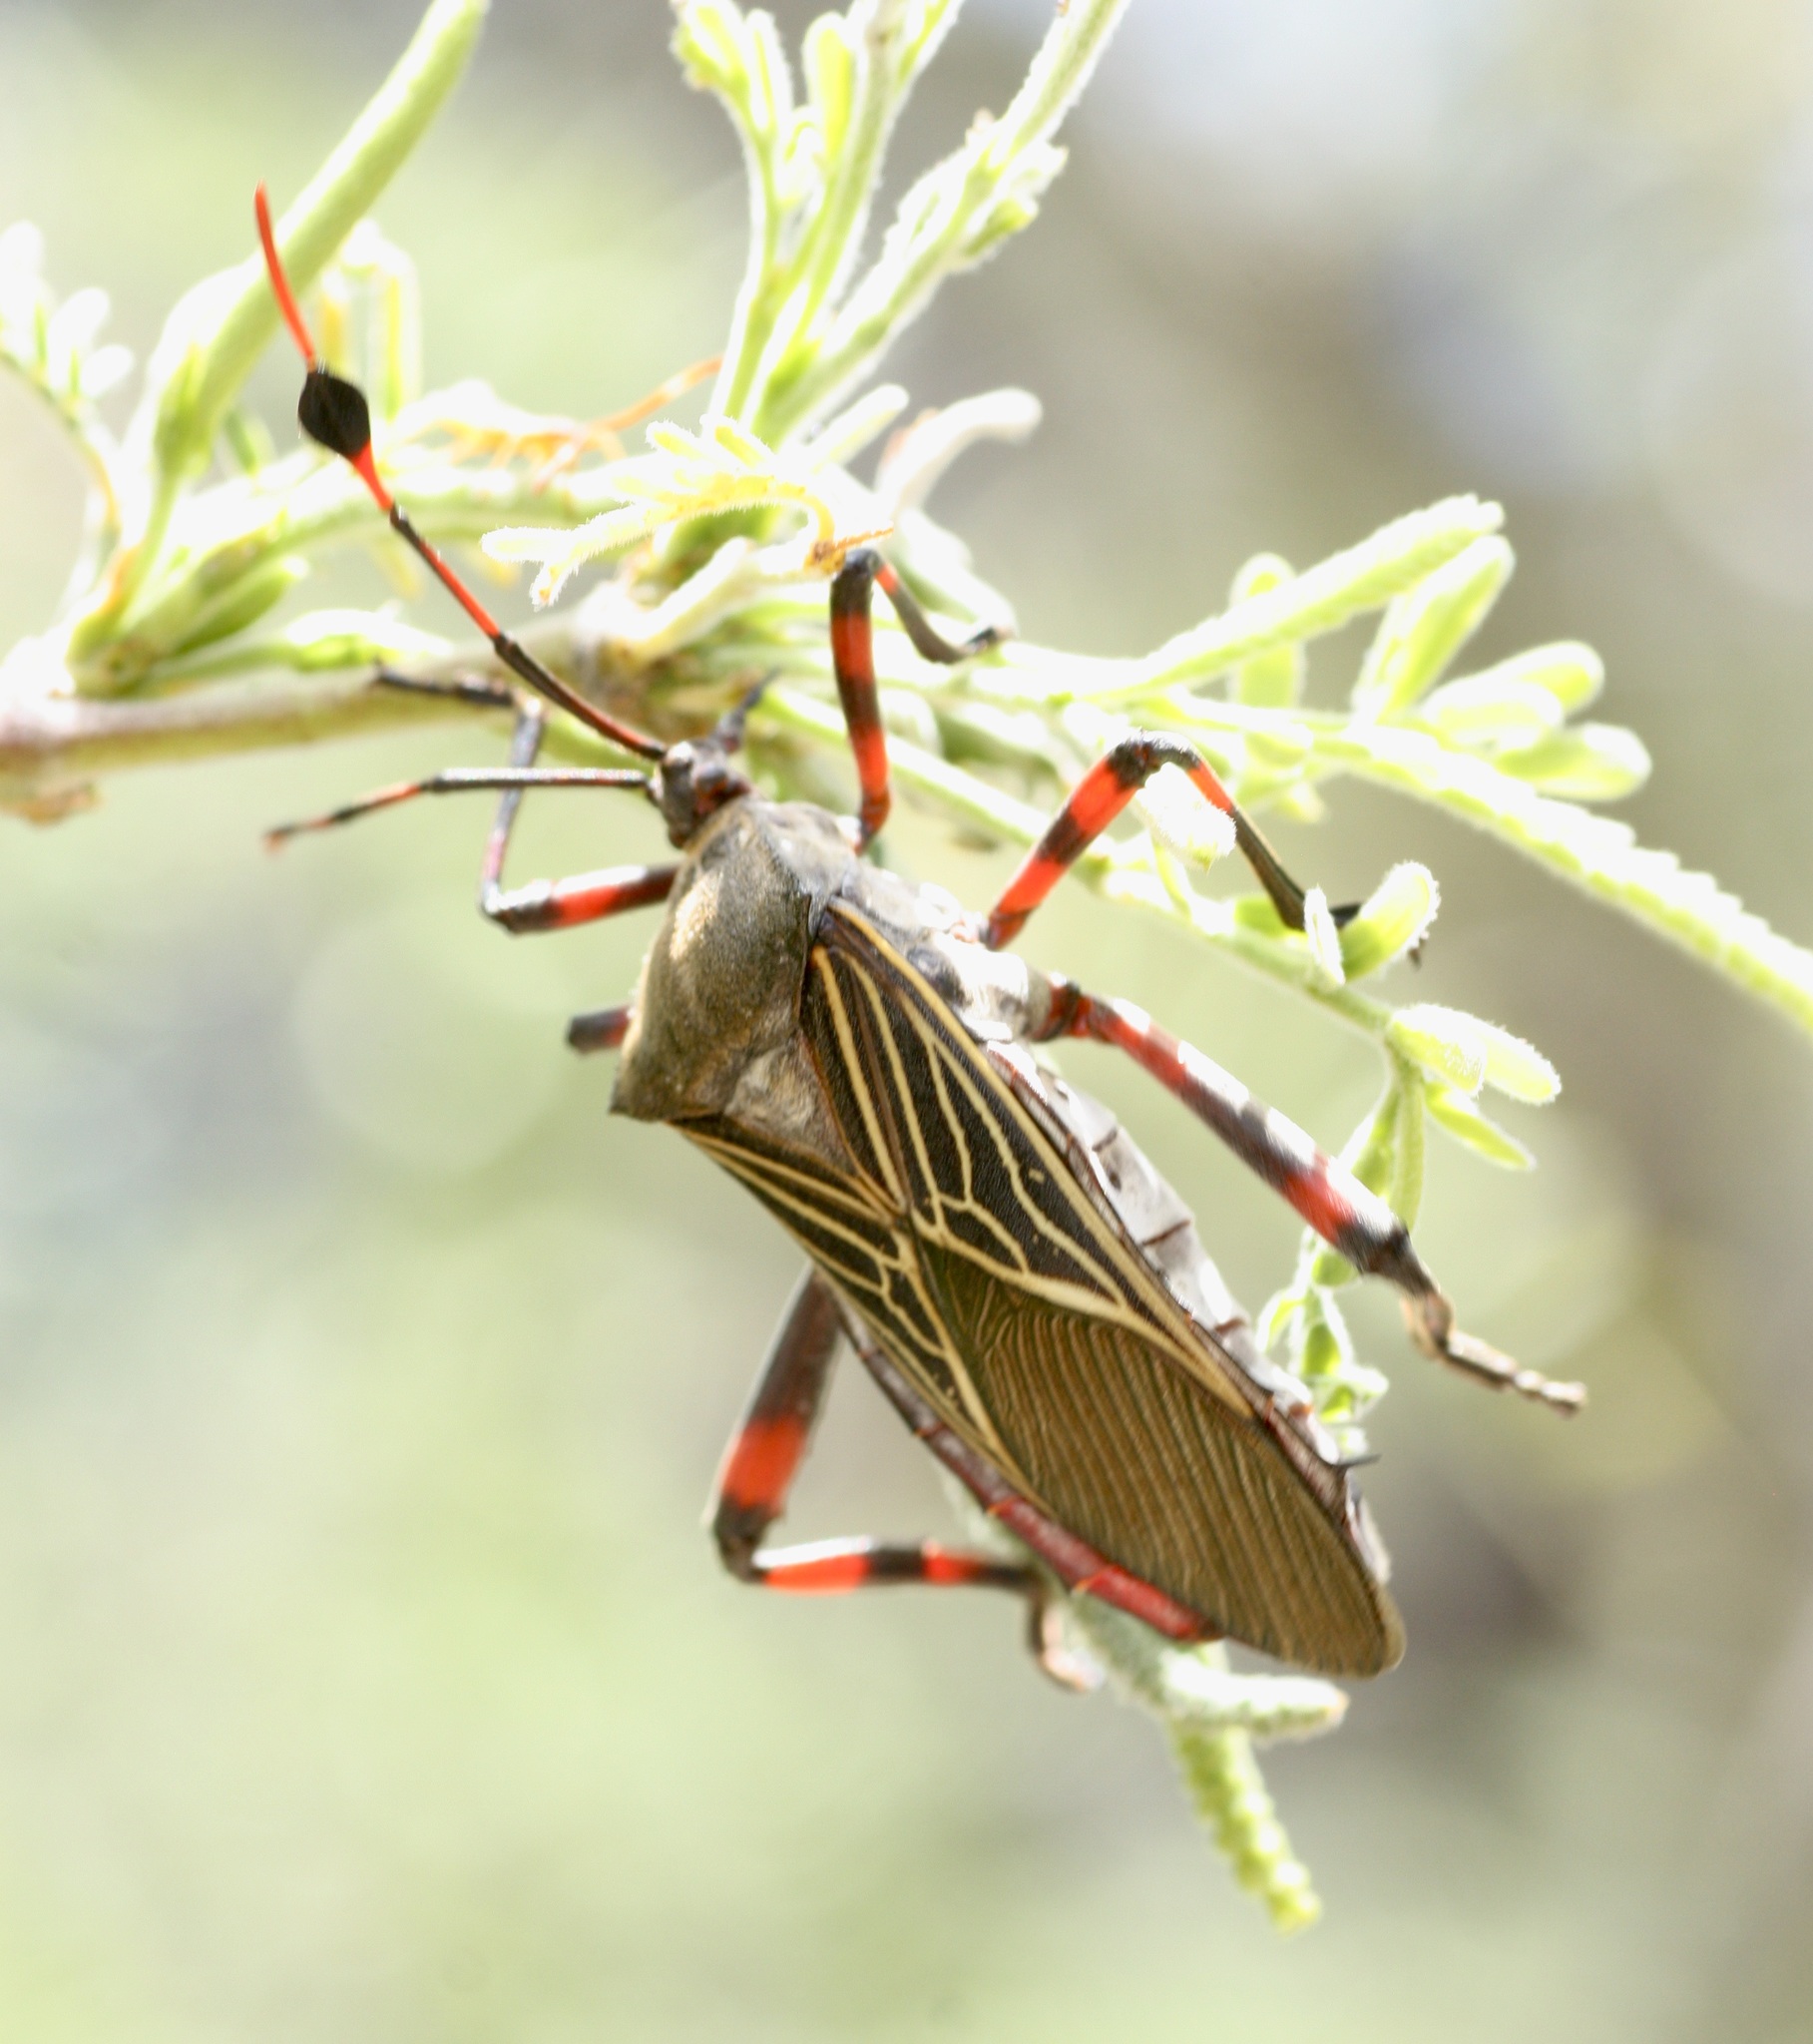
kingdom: Animalia
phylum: Arthropoda
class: Insecta
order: Hemiptera
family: Coreidae
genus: Thasus
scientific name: Thasus neocalifornicus
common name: Giant mesquite bug
